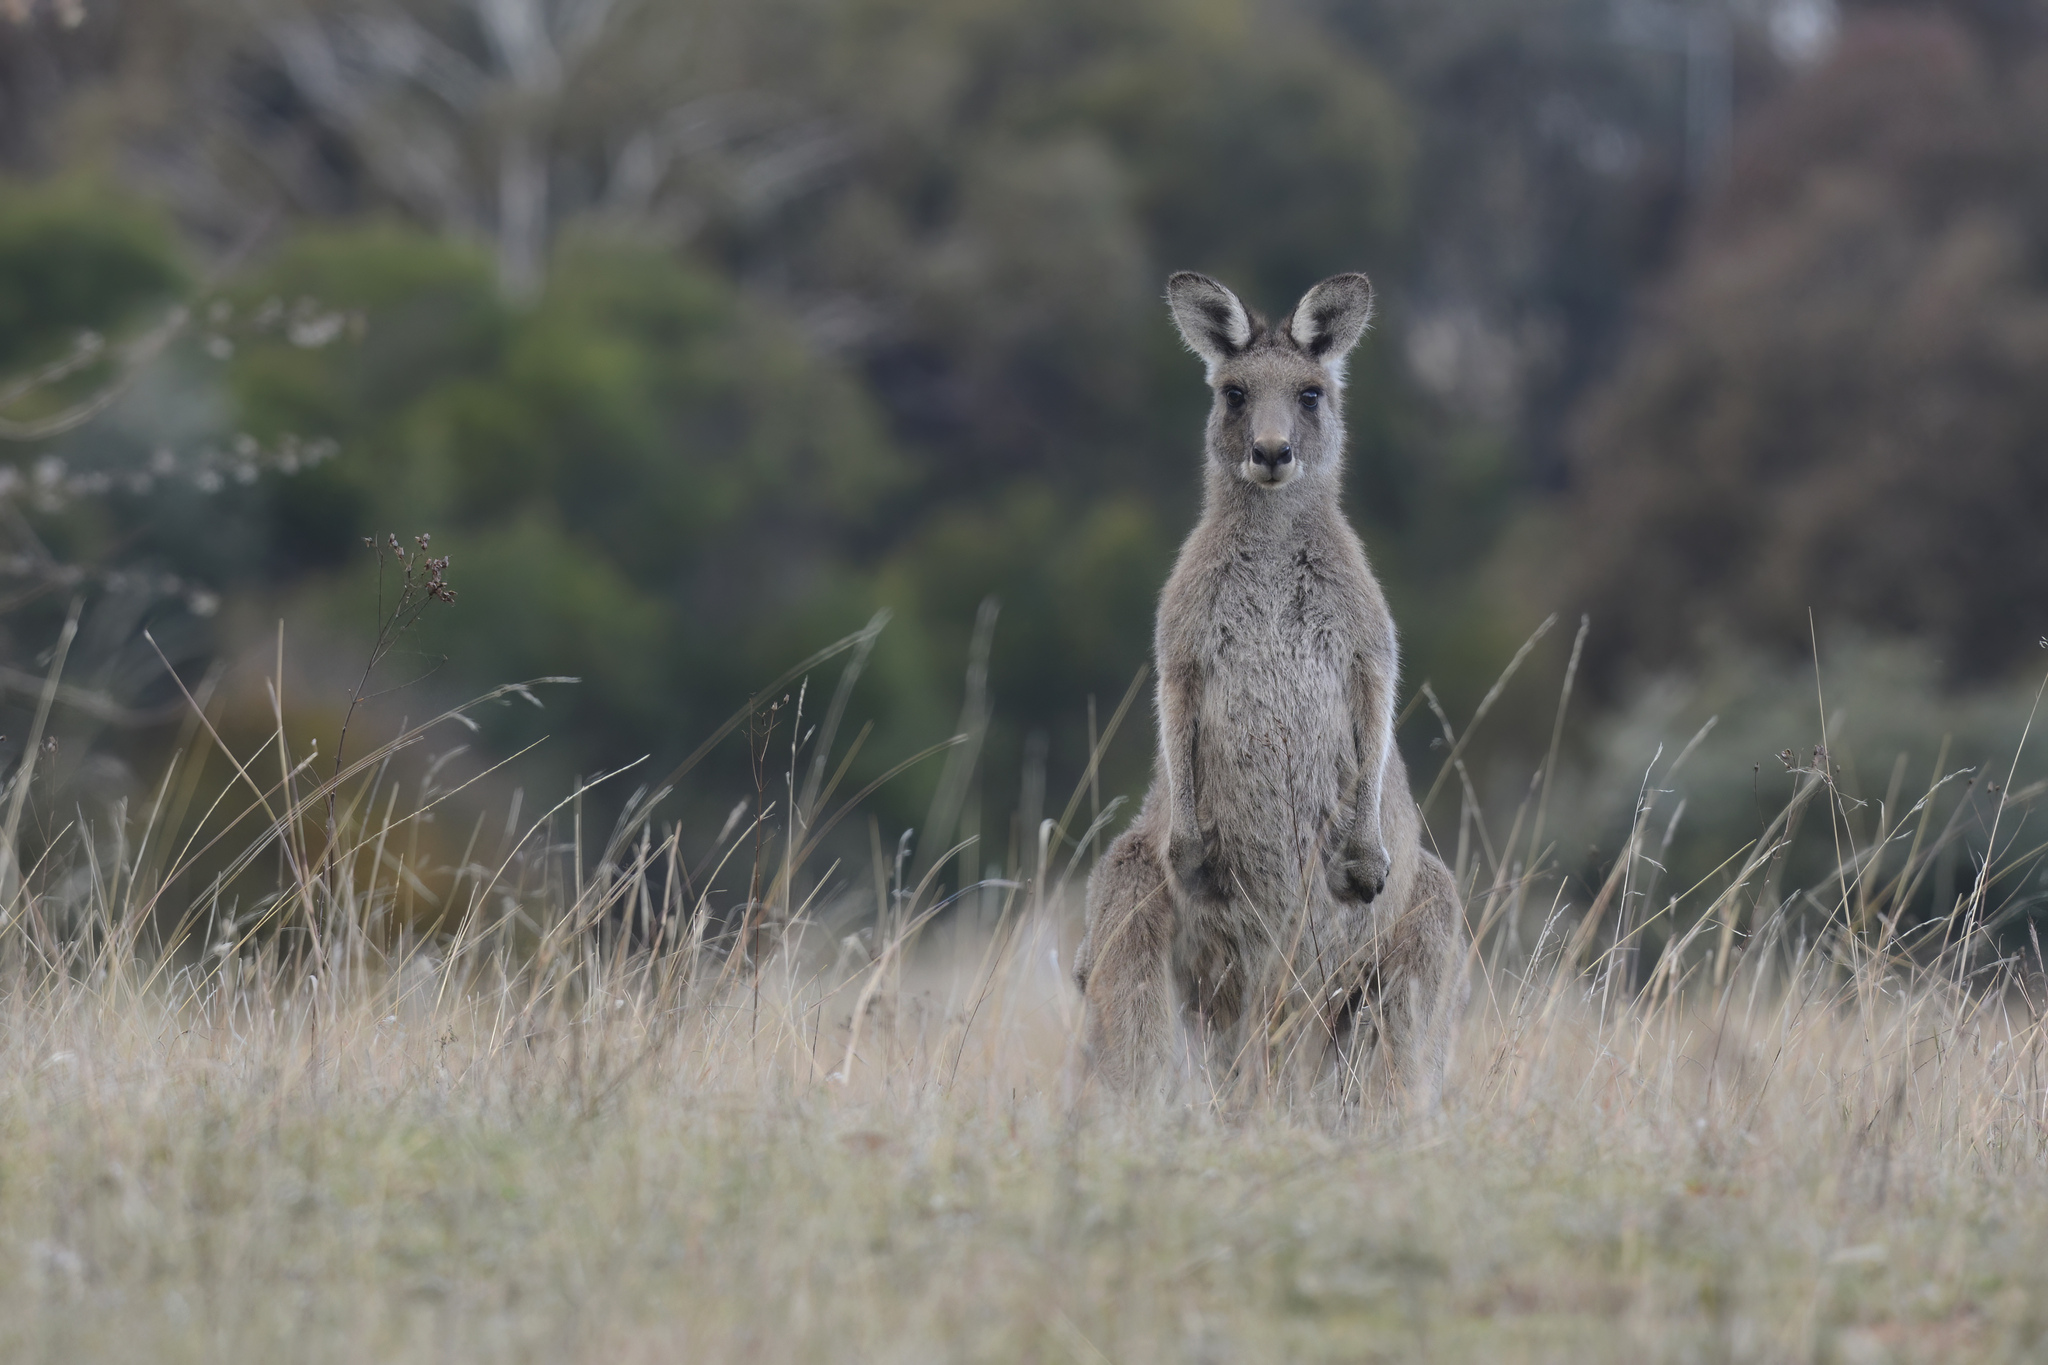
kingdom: Animalia
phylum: Chordata
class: Mammalia
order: Diprotodontia
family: Macropodidae
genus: Macropus
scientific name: Macropus giganteus
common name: Eastern grey kangaroo
